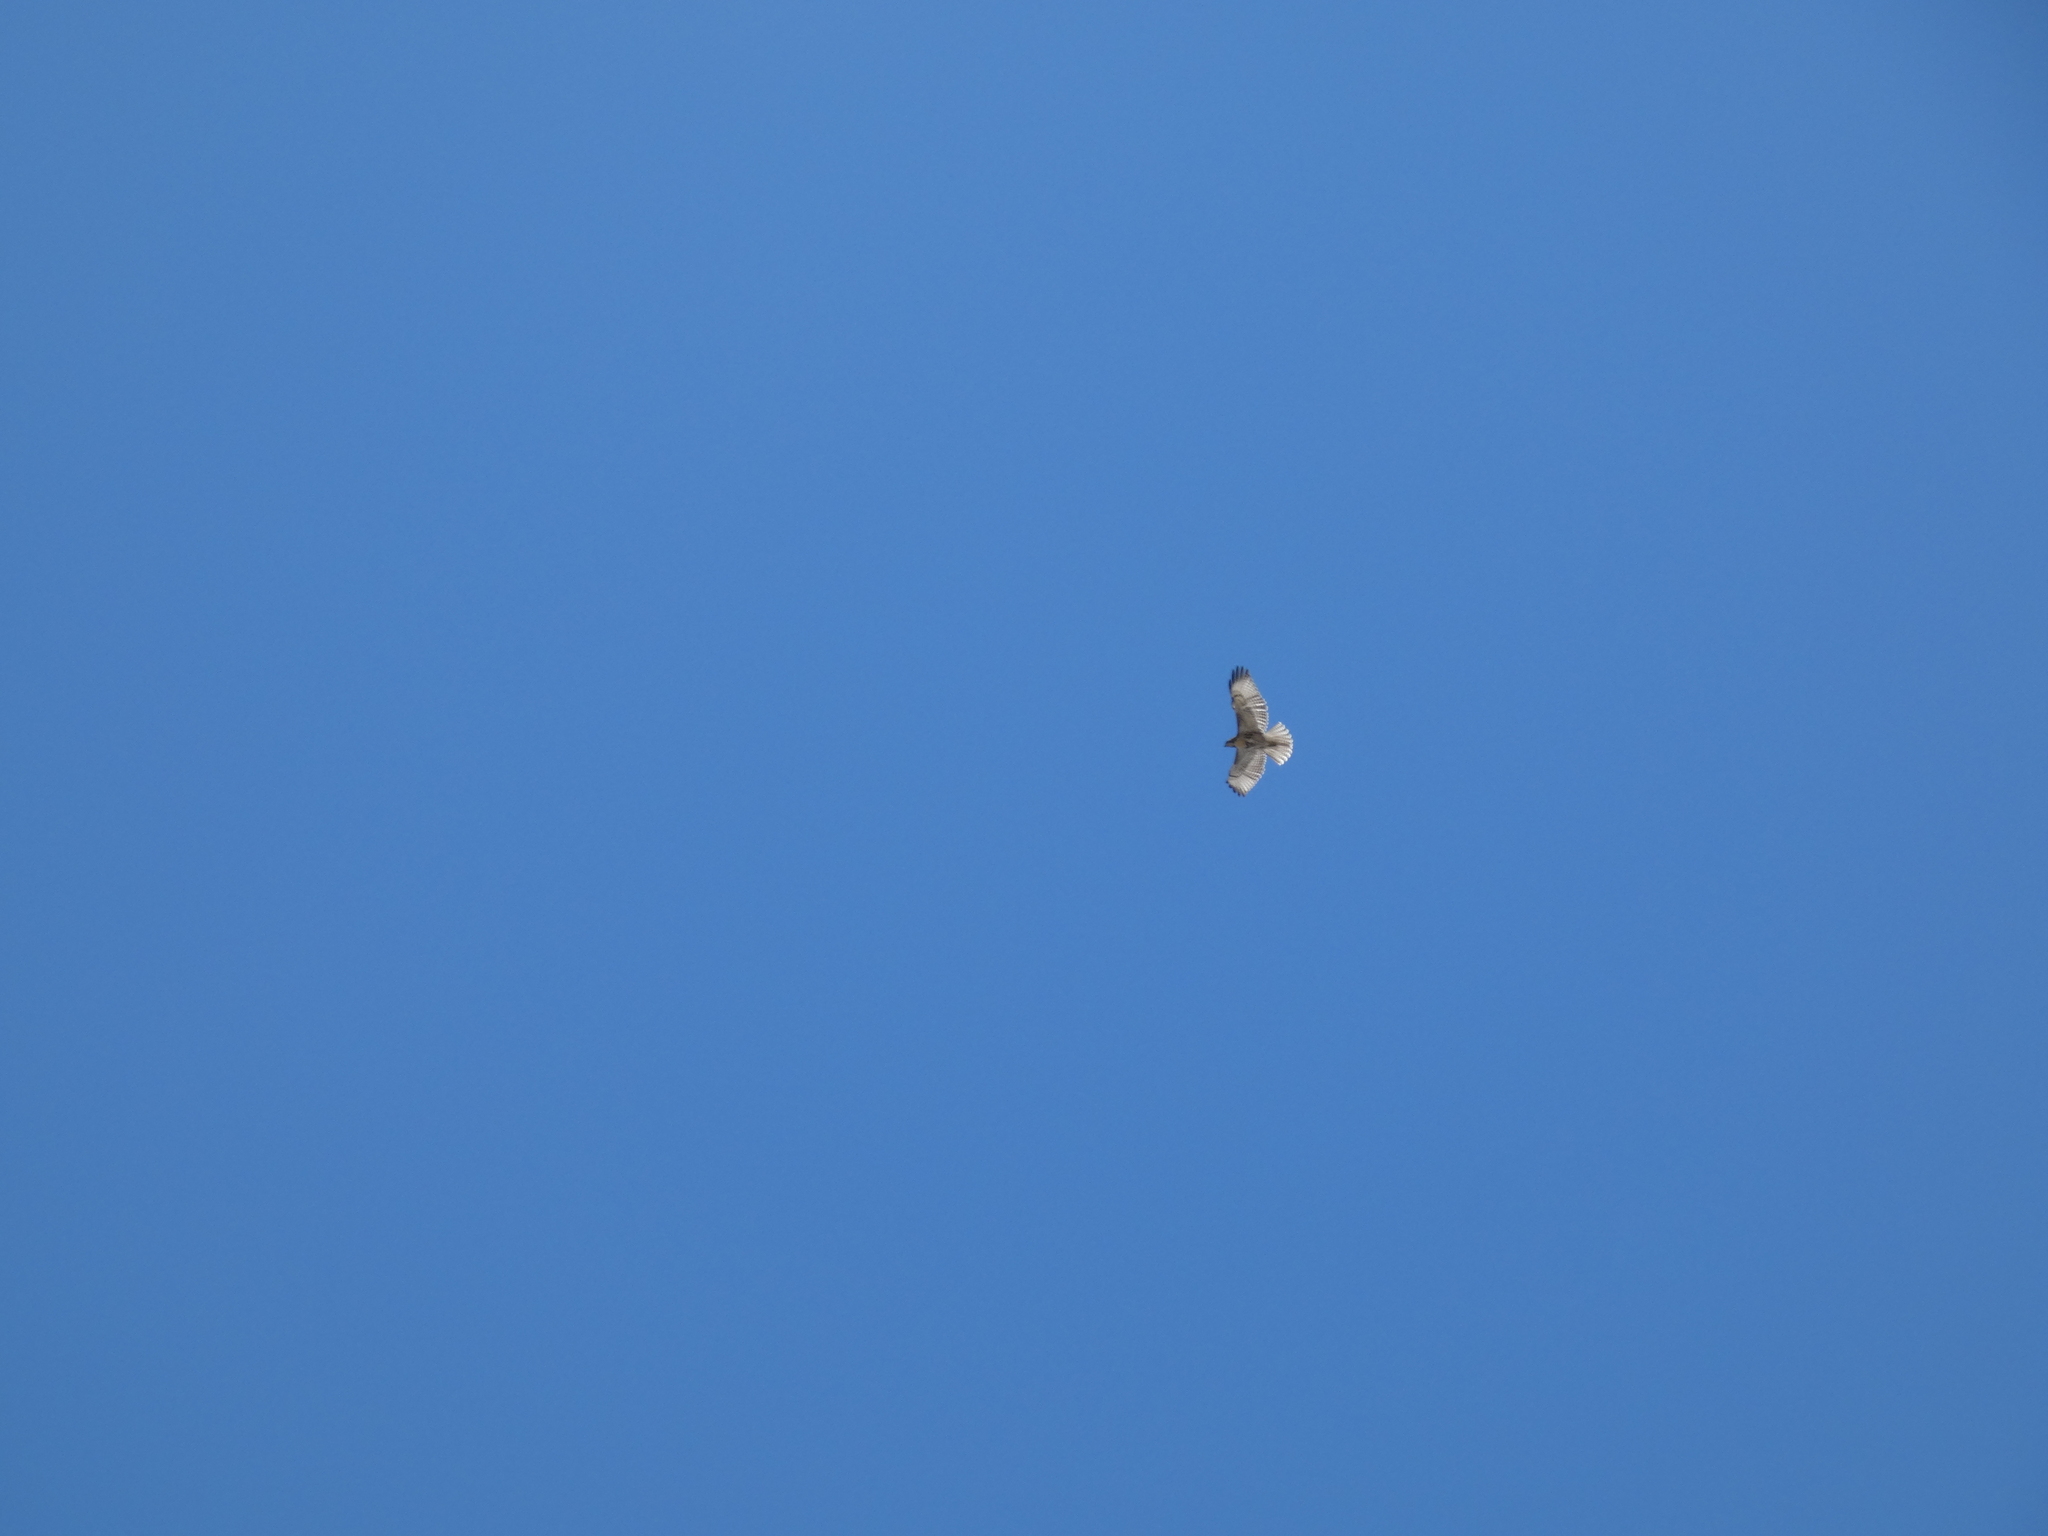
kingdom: Animalia
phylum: Chordata
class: Aves
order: Accipitriformes
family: Accipitridae
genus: Buteo
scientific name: Buteo jamaicensis
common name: Red-tailed hawk
